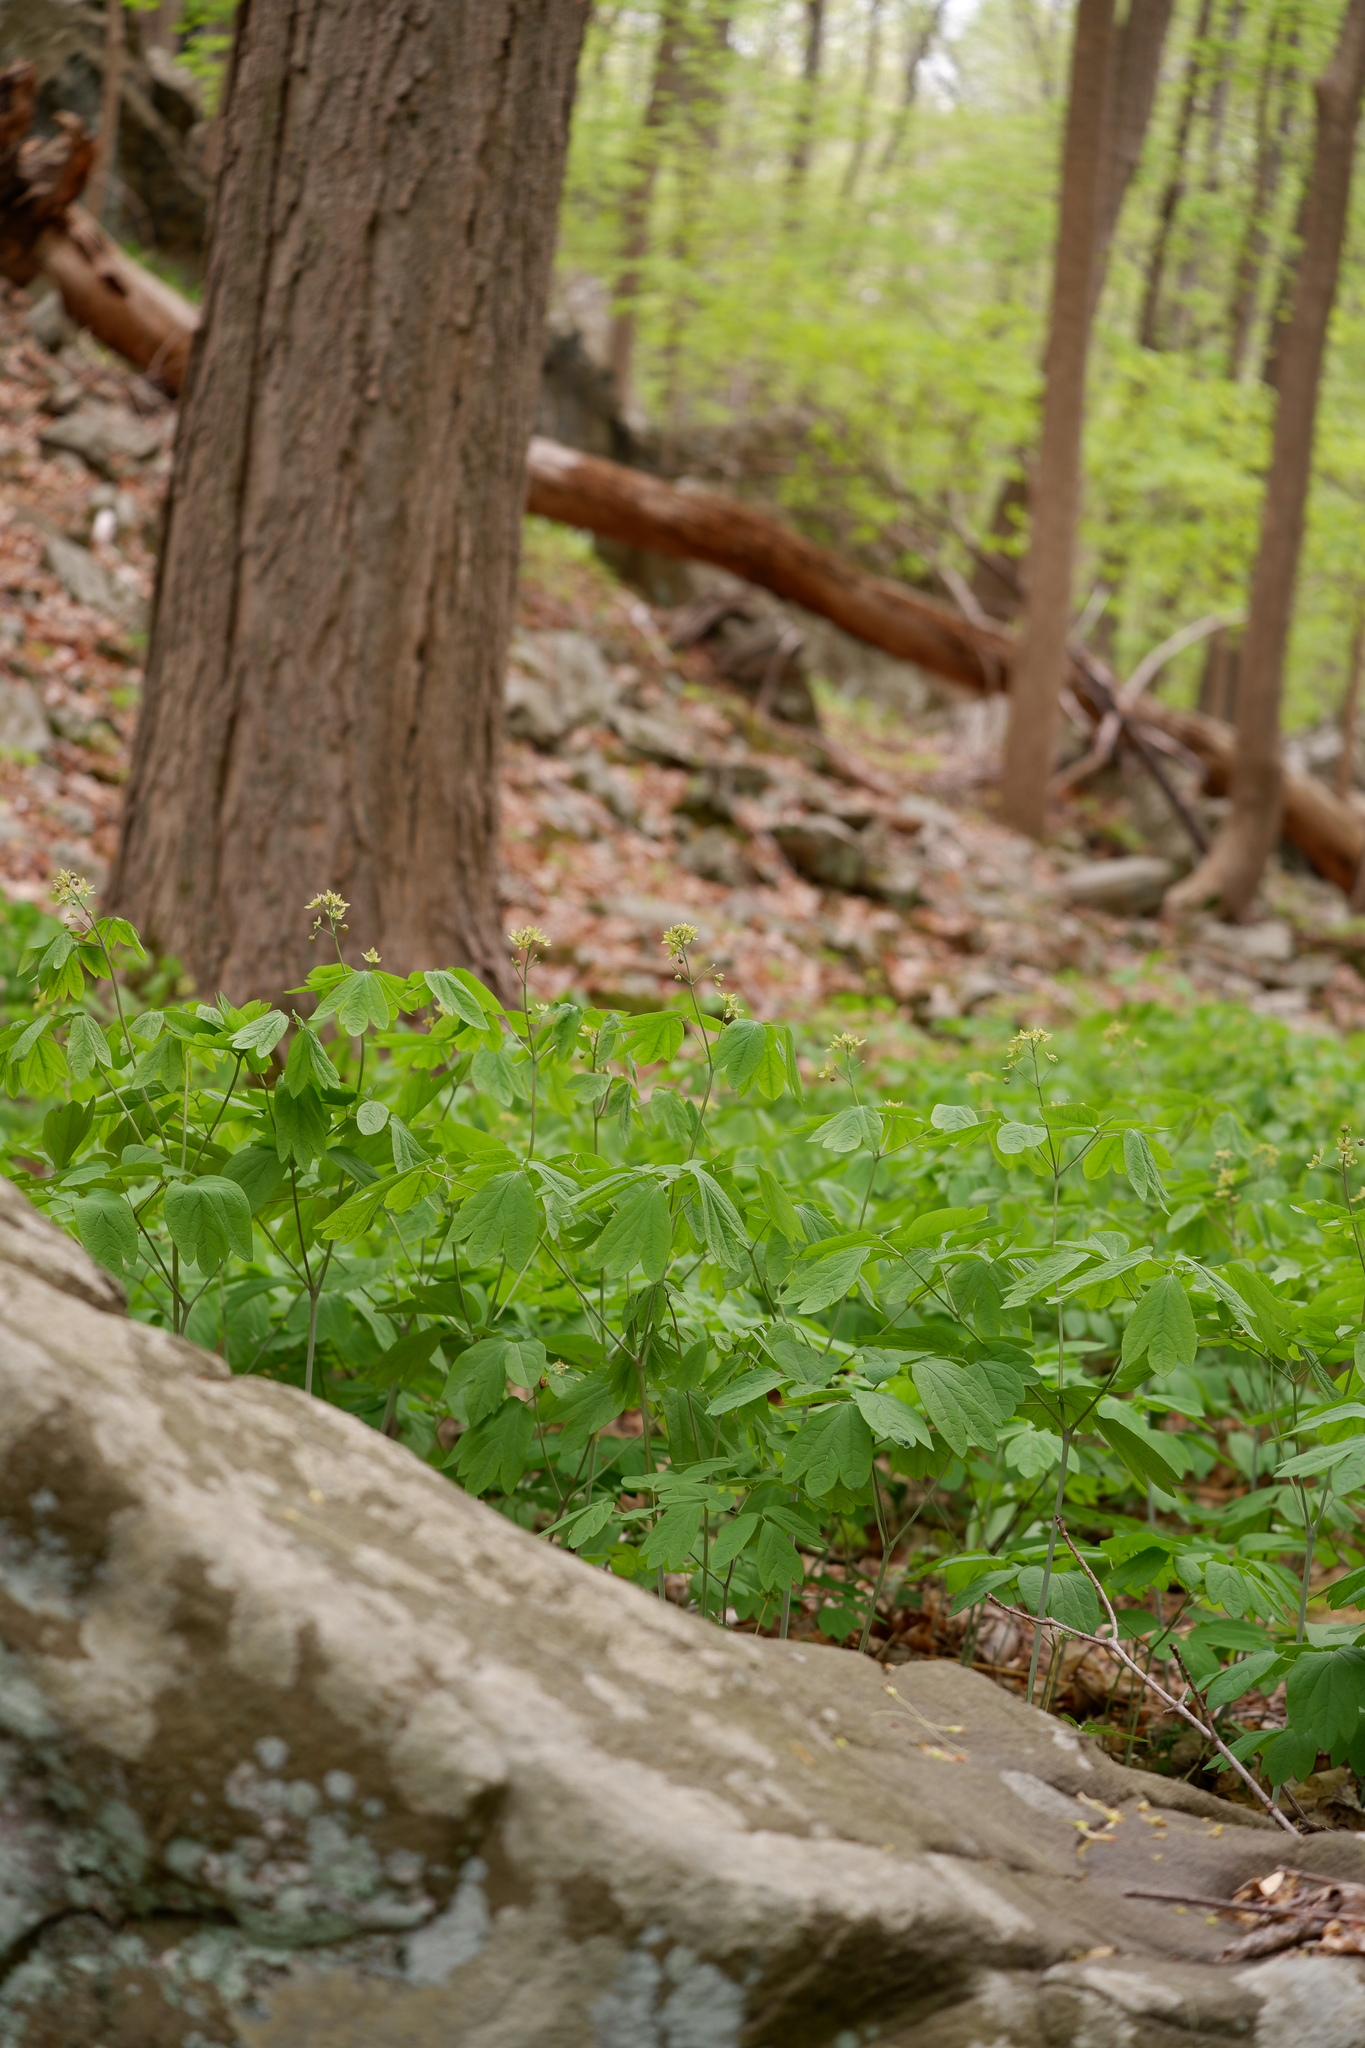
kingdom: Plantae
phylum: Tracheophyta
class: Magnoliopsida
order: Ranunculales
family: Berberidaceae
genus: Caulophyllum
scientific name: Caulophyllum thalictroides
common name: Blue cohosh
